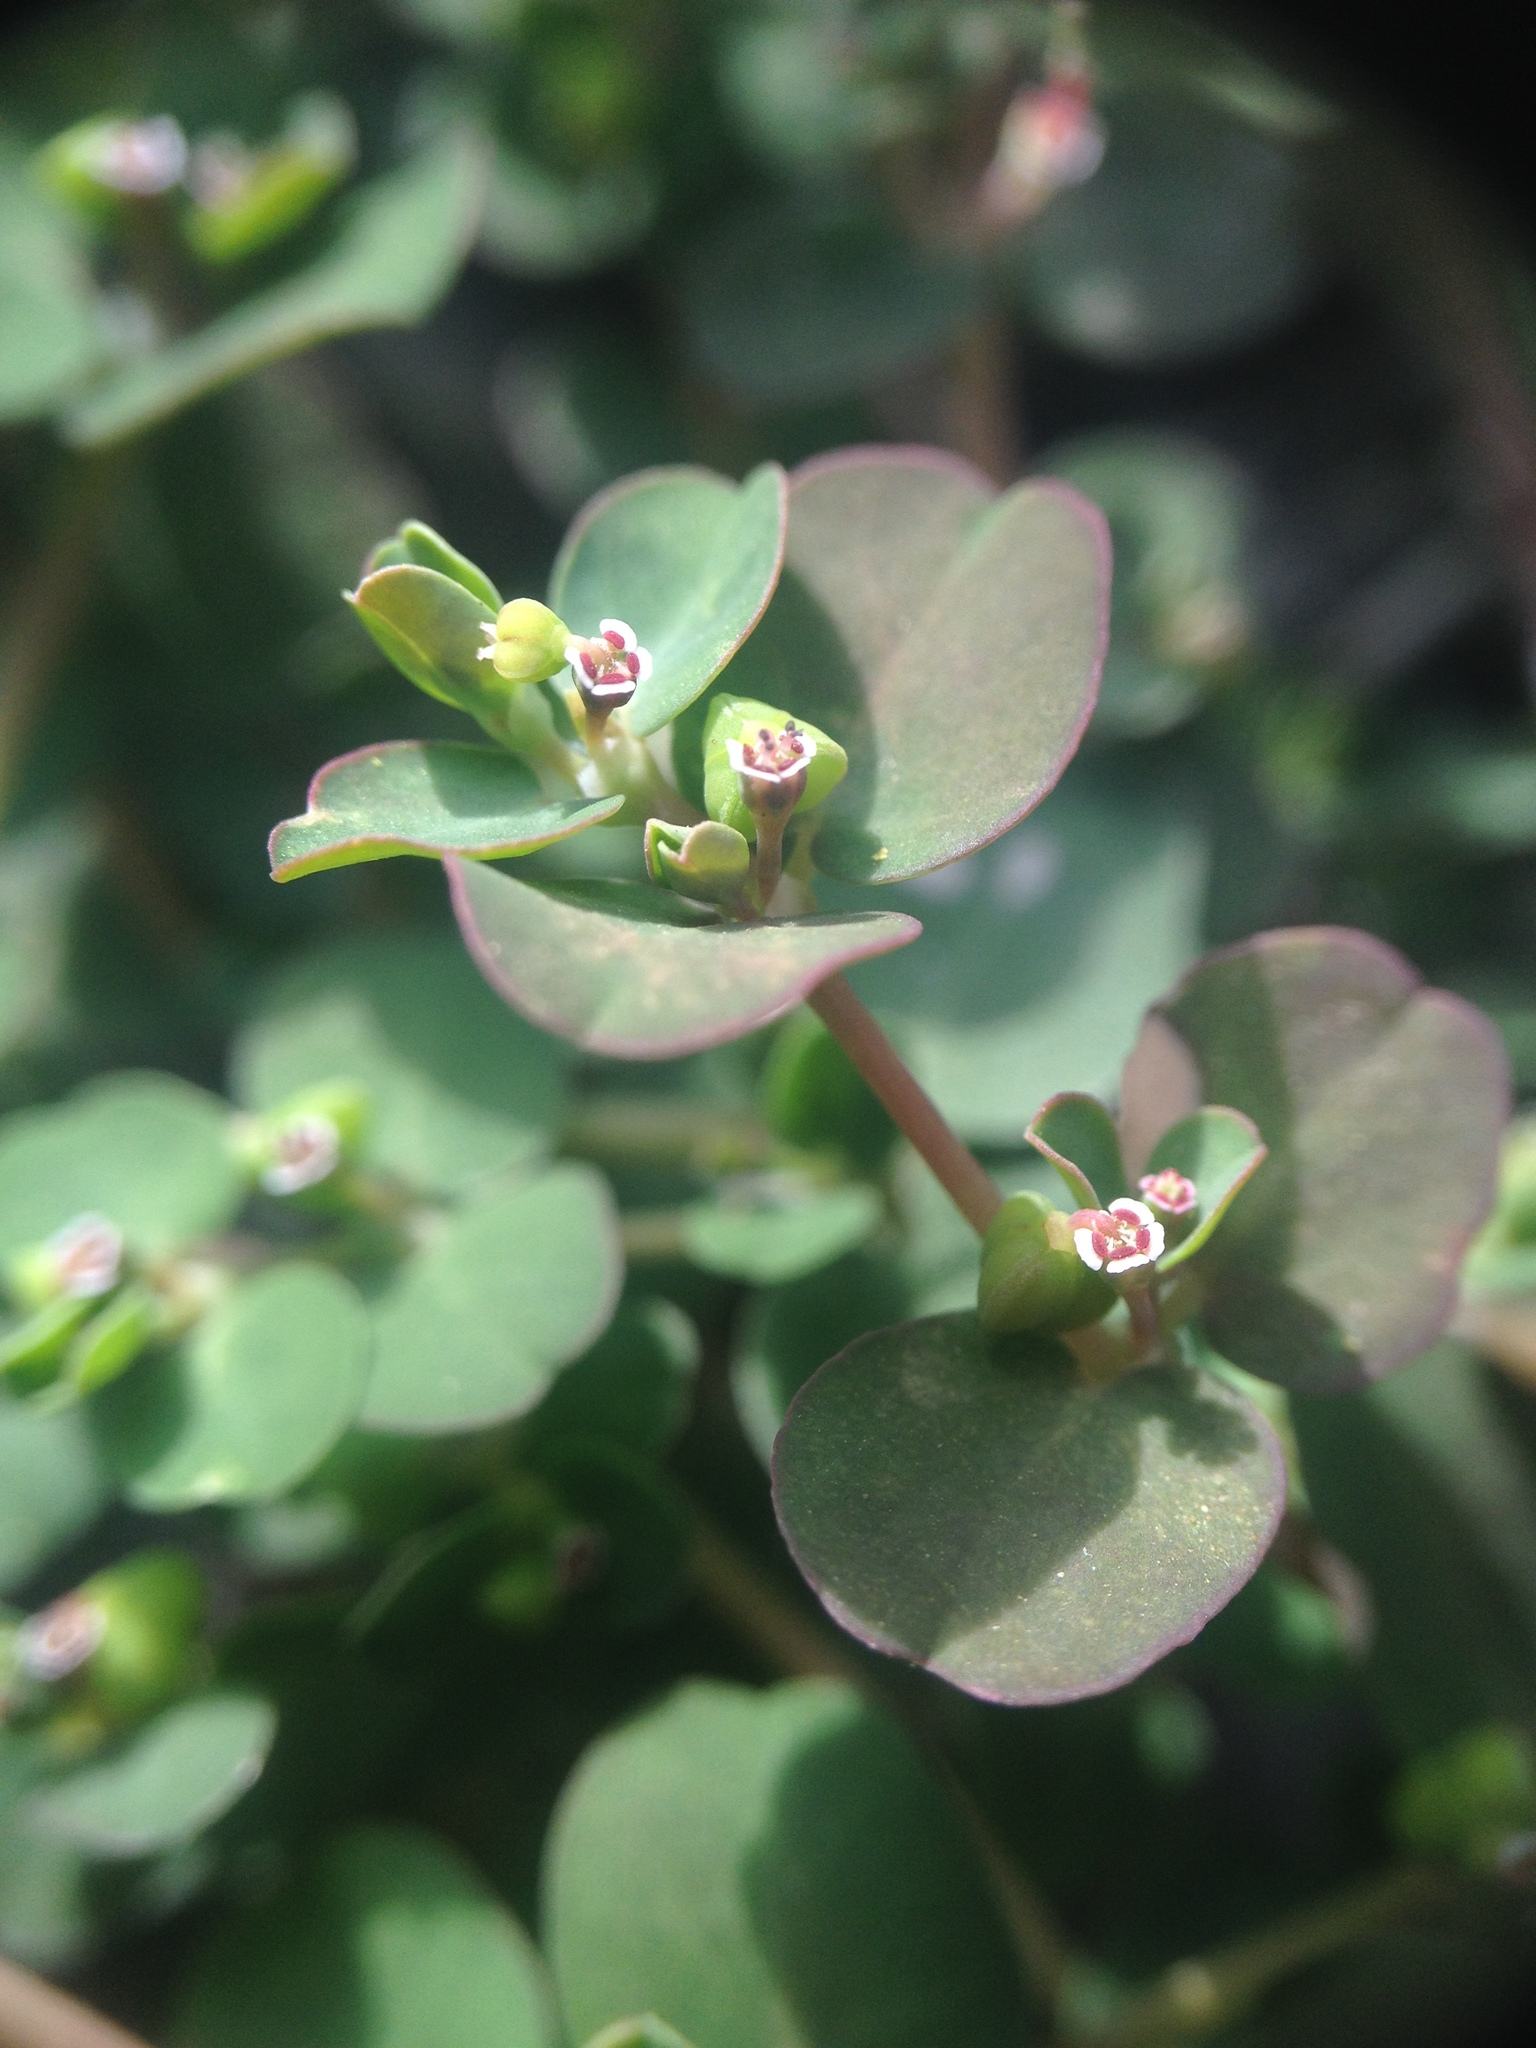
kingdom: Plantae
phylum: Tracheophyta
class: Magnoliopsida
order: Malpighiales
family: Euphorbiaceae
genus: Euphorbia
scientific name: Euphorbia serpens
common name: Matted sandmat
